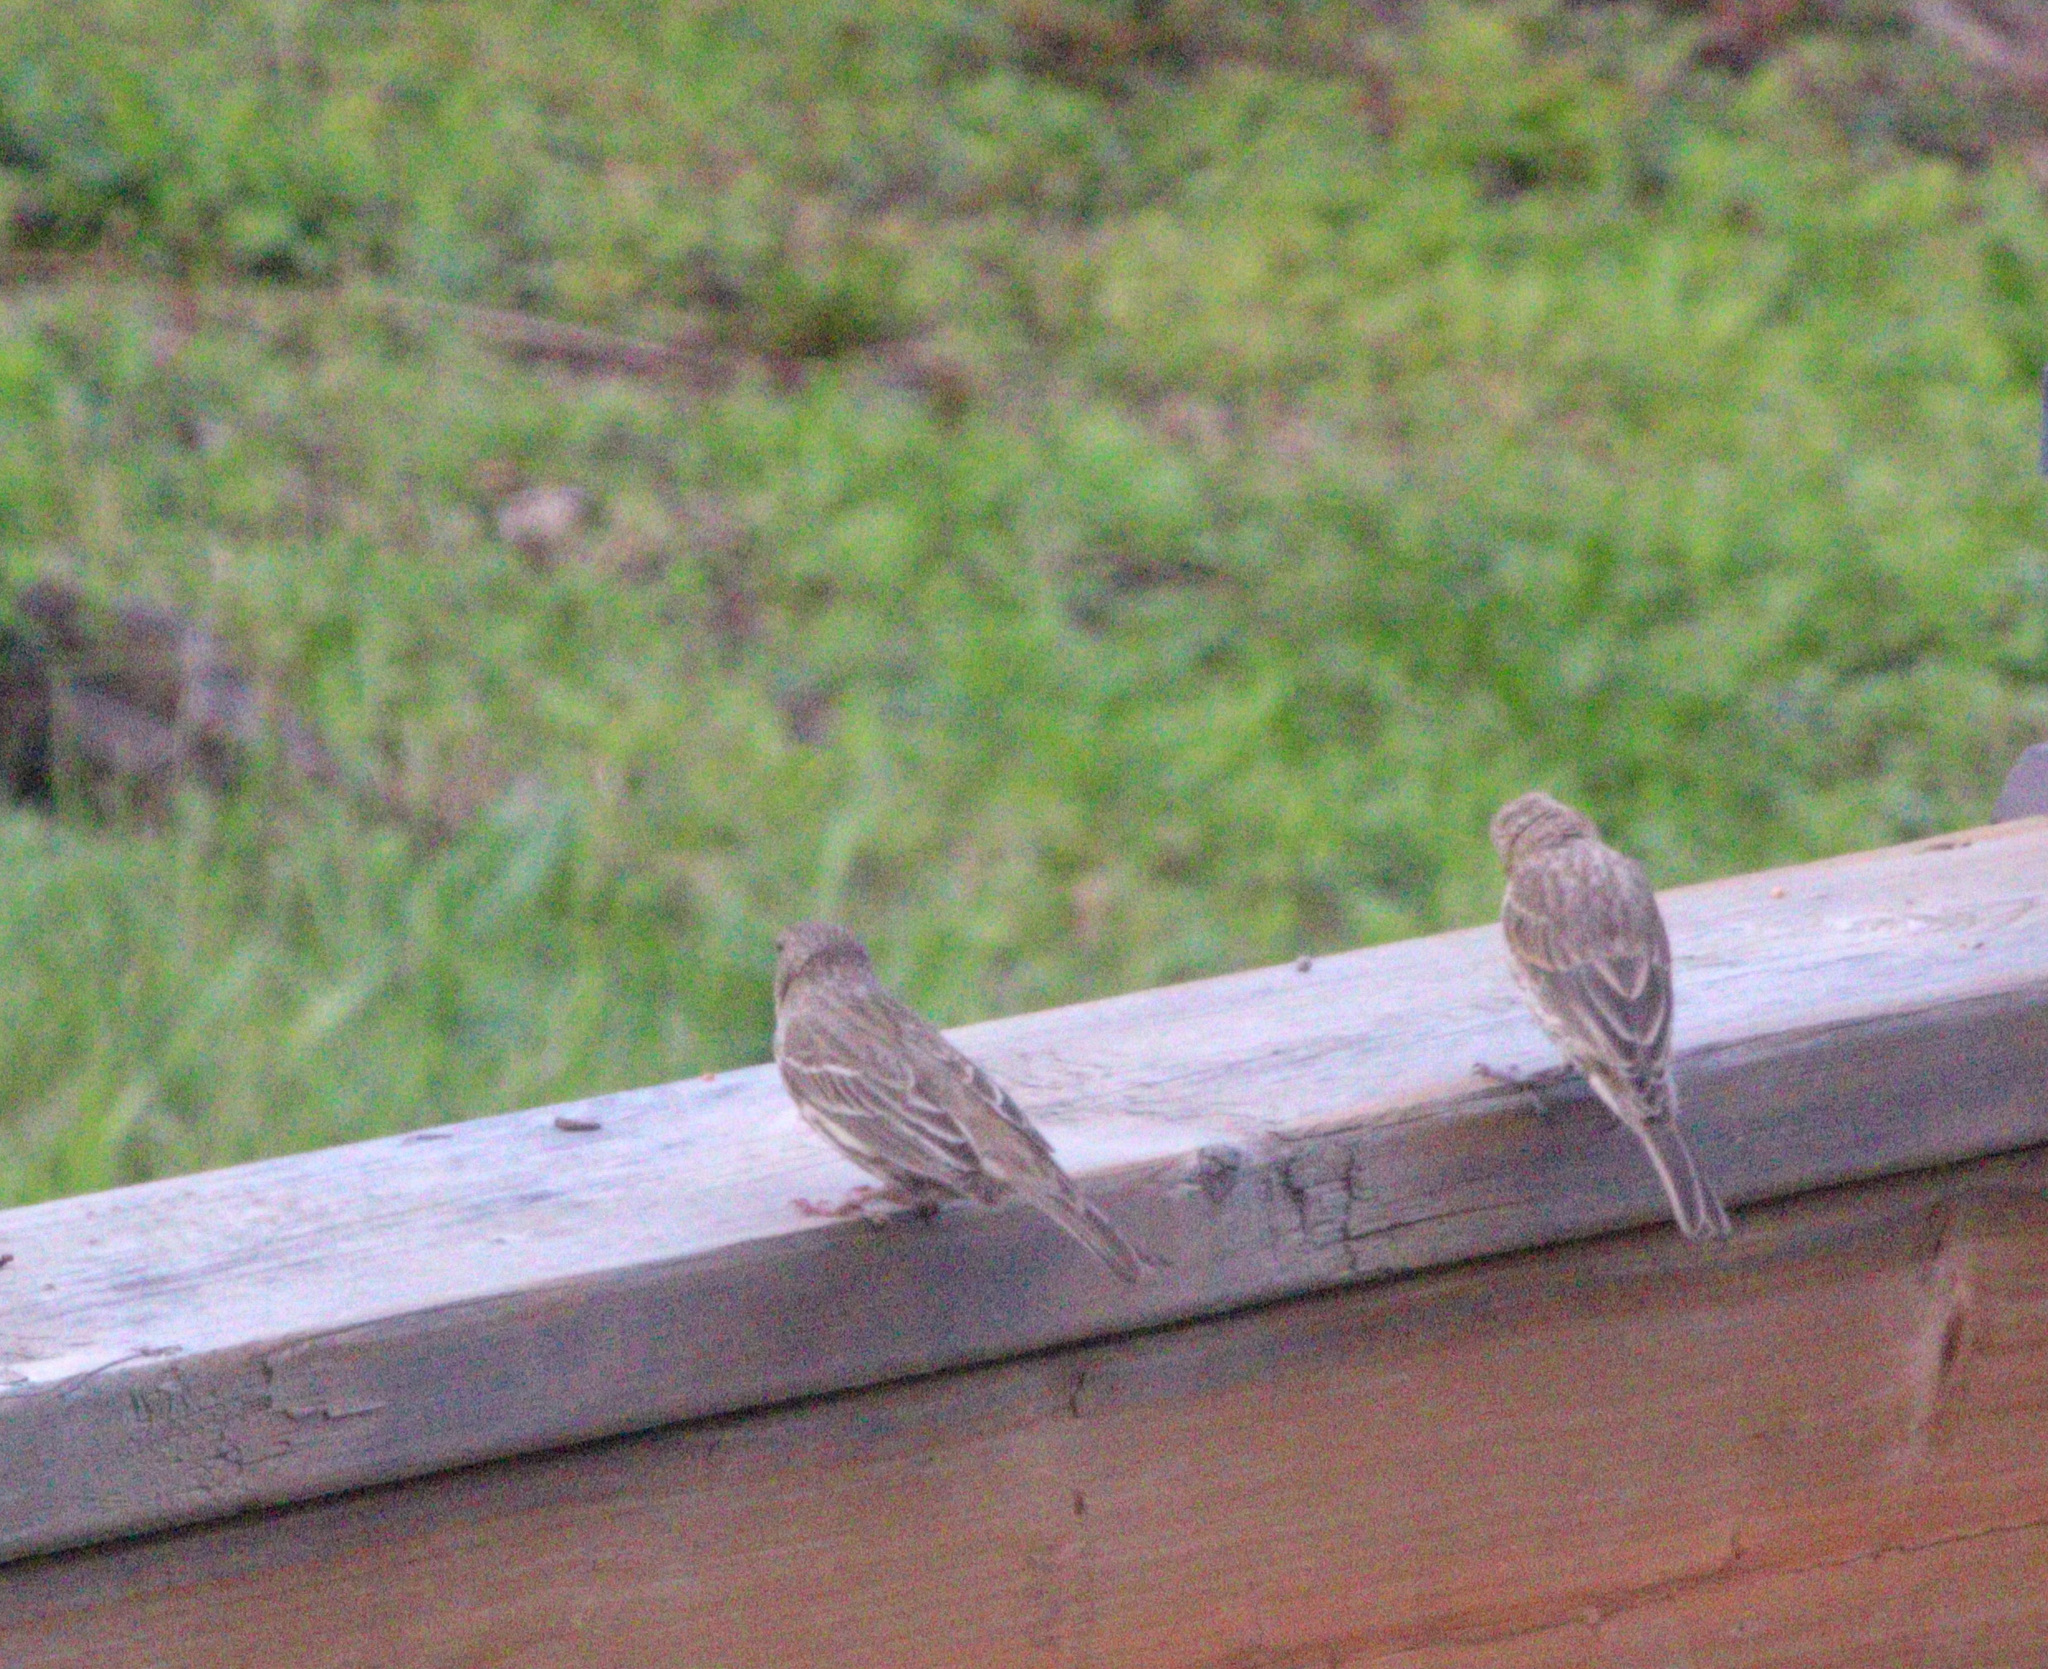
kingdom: Animalia
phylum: Chordata
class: Aves
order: Passeriformes
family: Fringillidae
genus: Haemorhous
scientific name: Haemorhous mexicanus
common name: House finch
